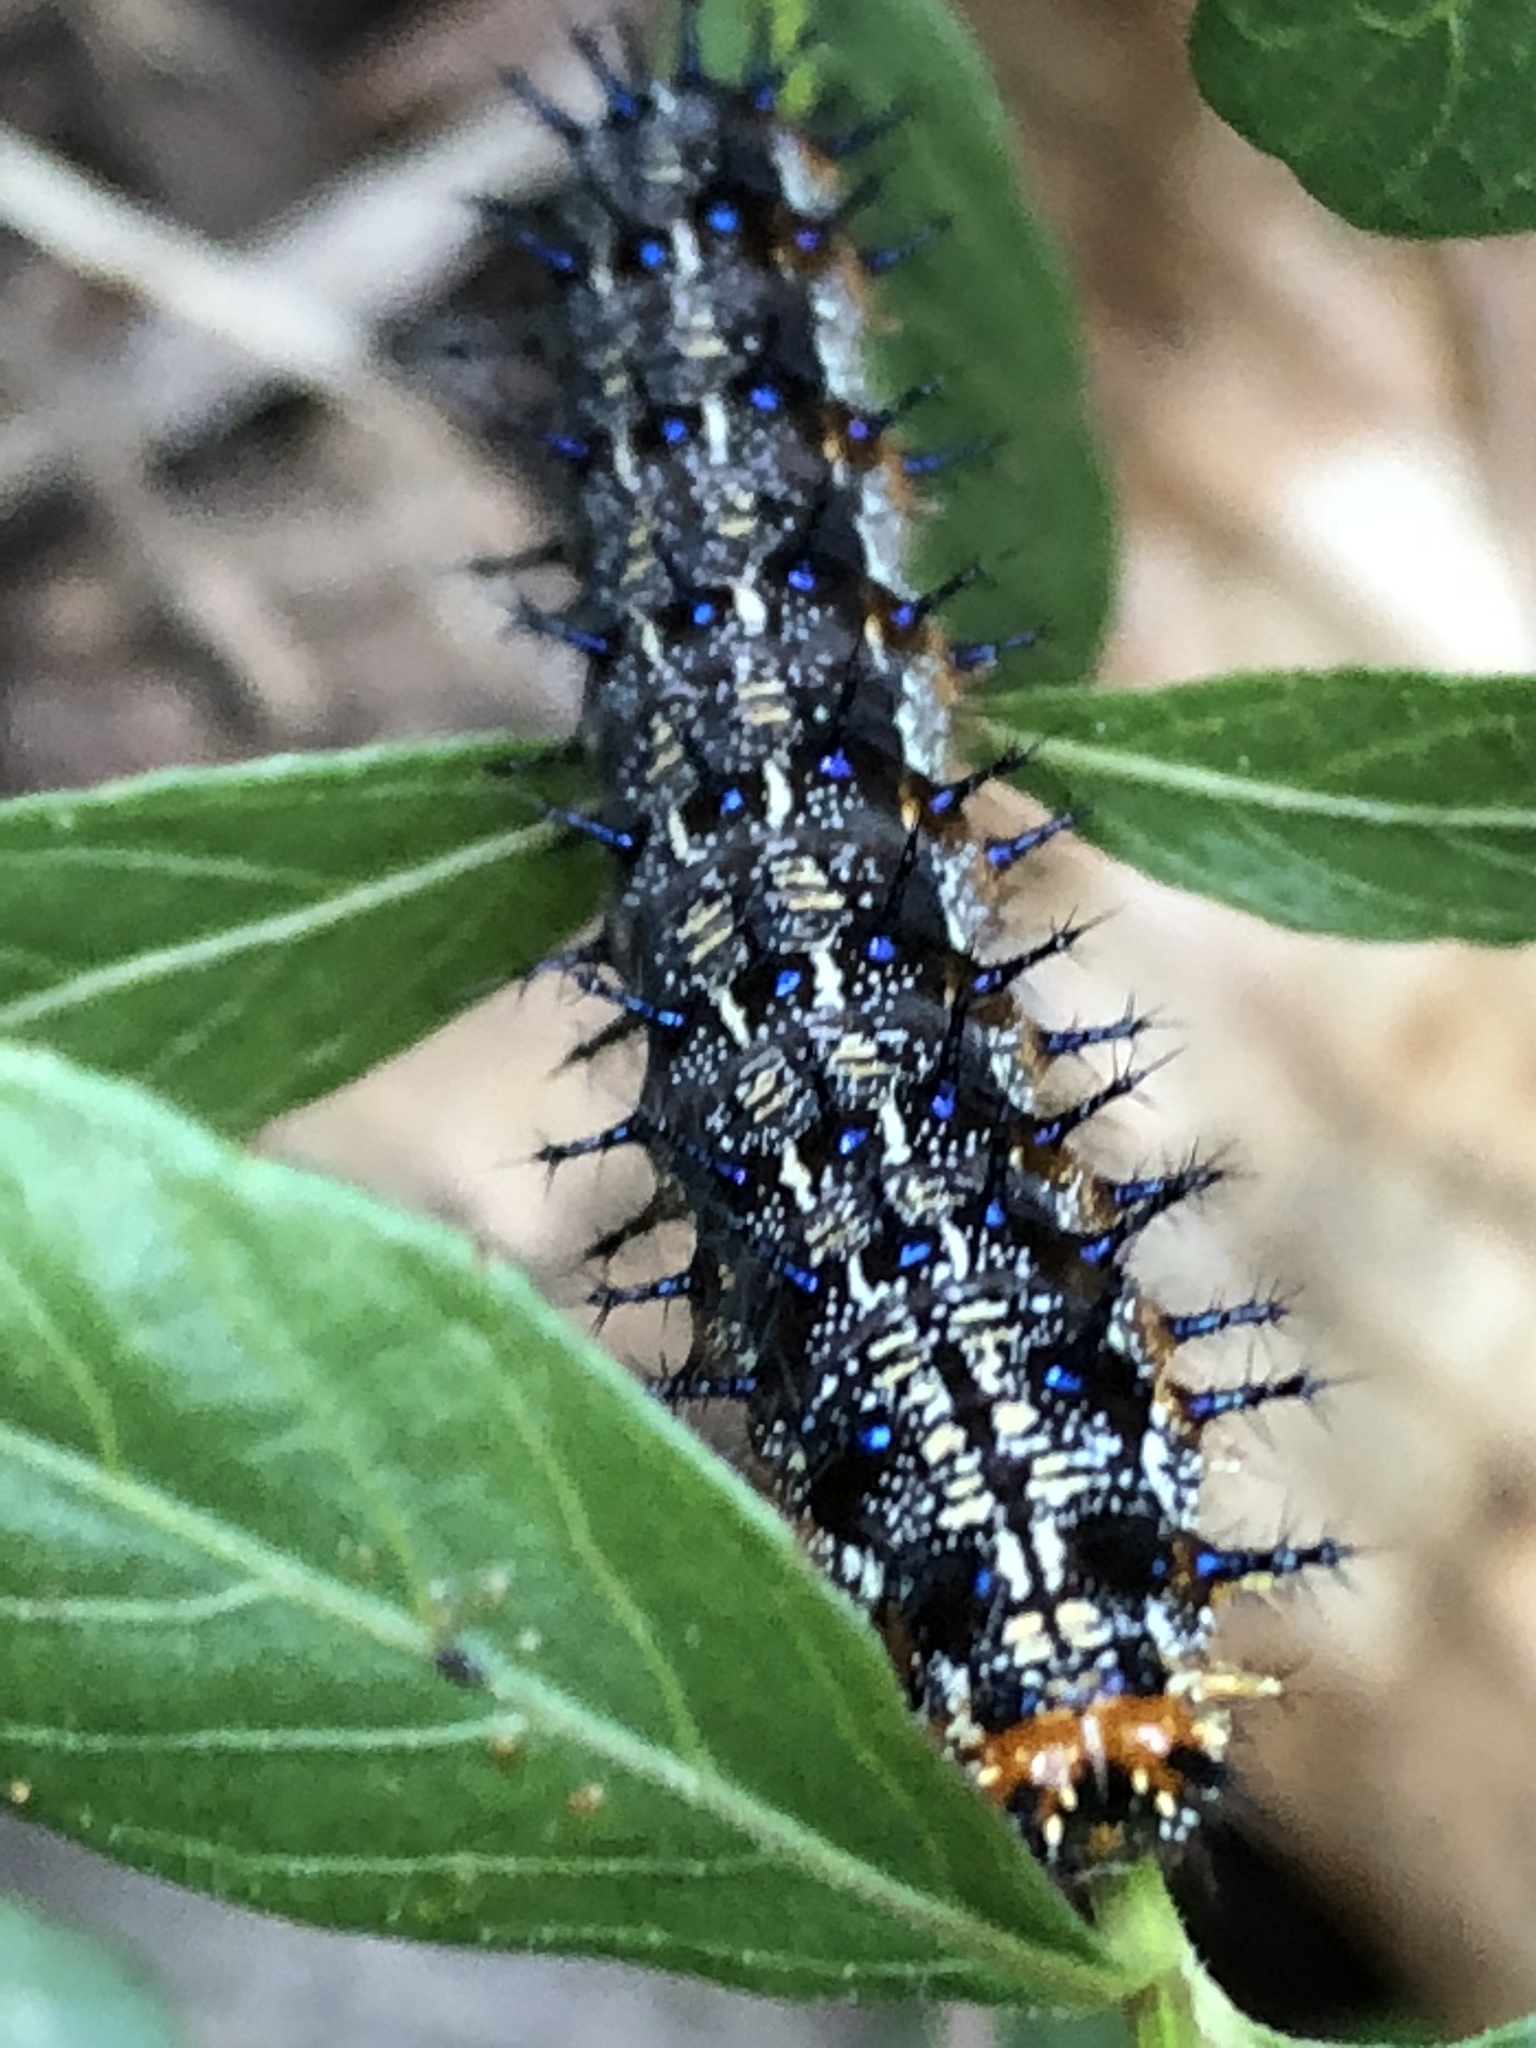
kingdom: Animalia
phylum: Arthropoda
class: Insecta
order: Lepidoptera
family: Nymphalidae
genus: Junonia
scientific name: Junonia coenia
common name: Common buckeye
